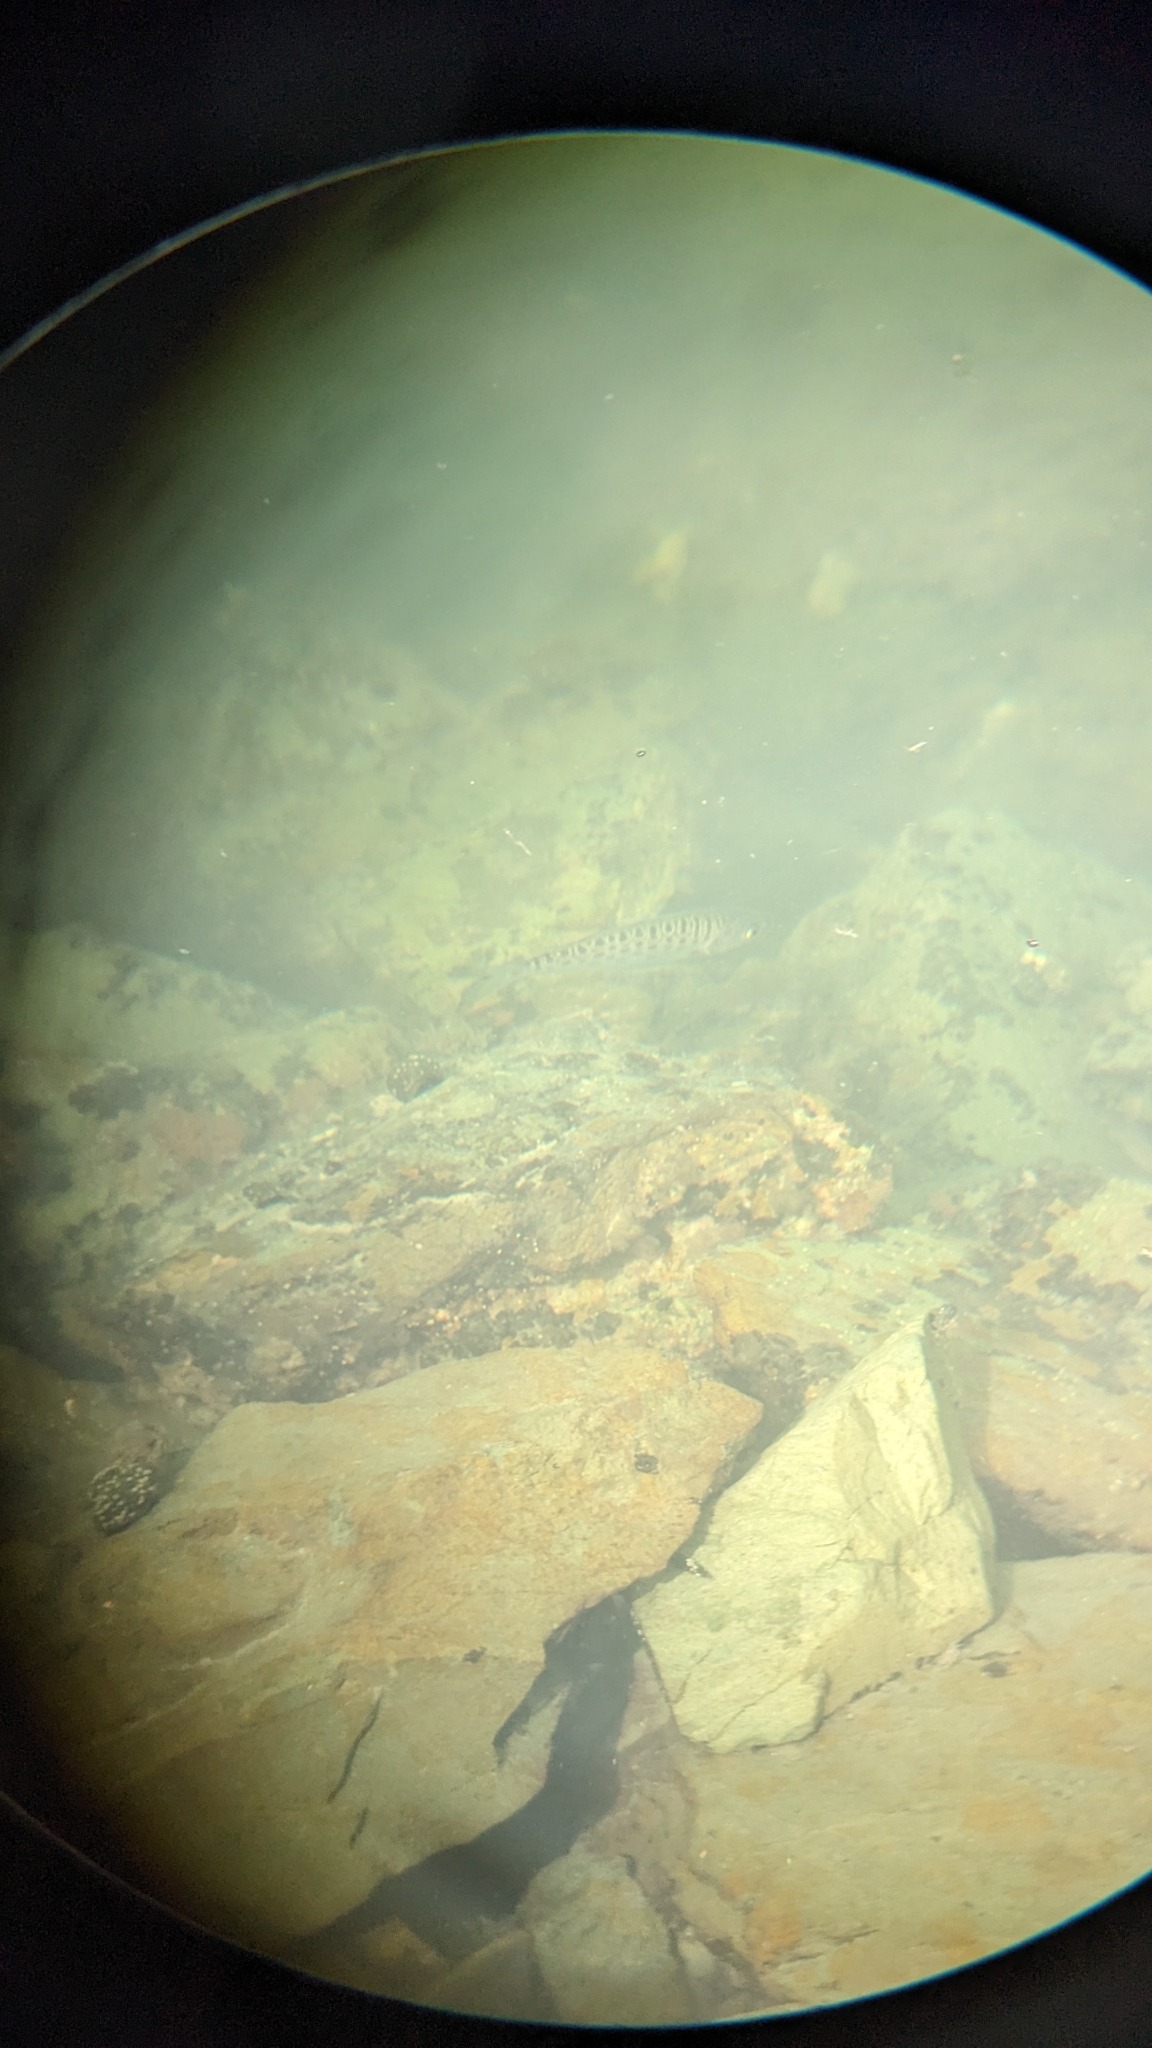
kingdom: Animalia
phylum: Chordata
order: Perciformes
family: Arripidae
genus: Arripis
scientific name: Arripis trutta
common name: Kahawai
